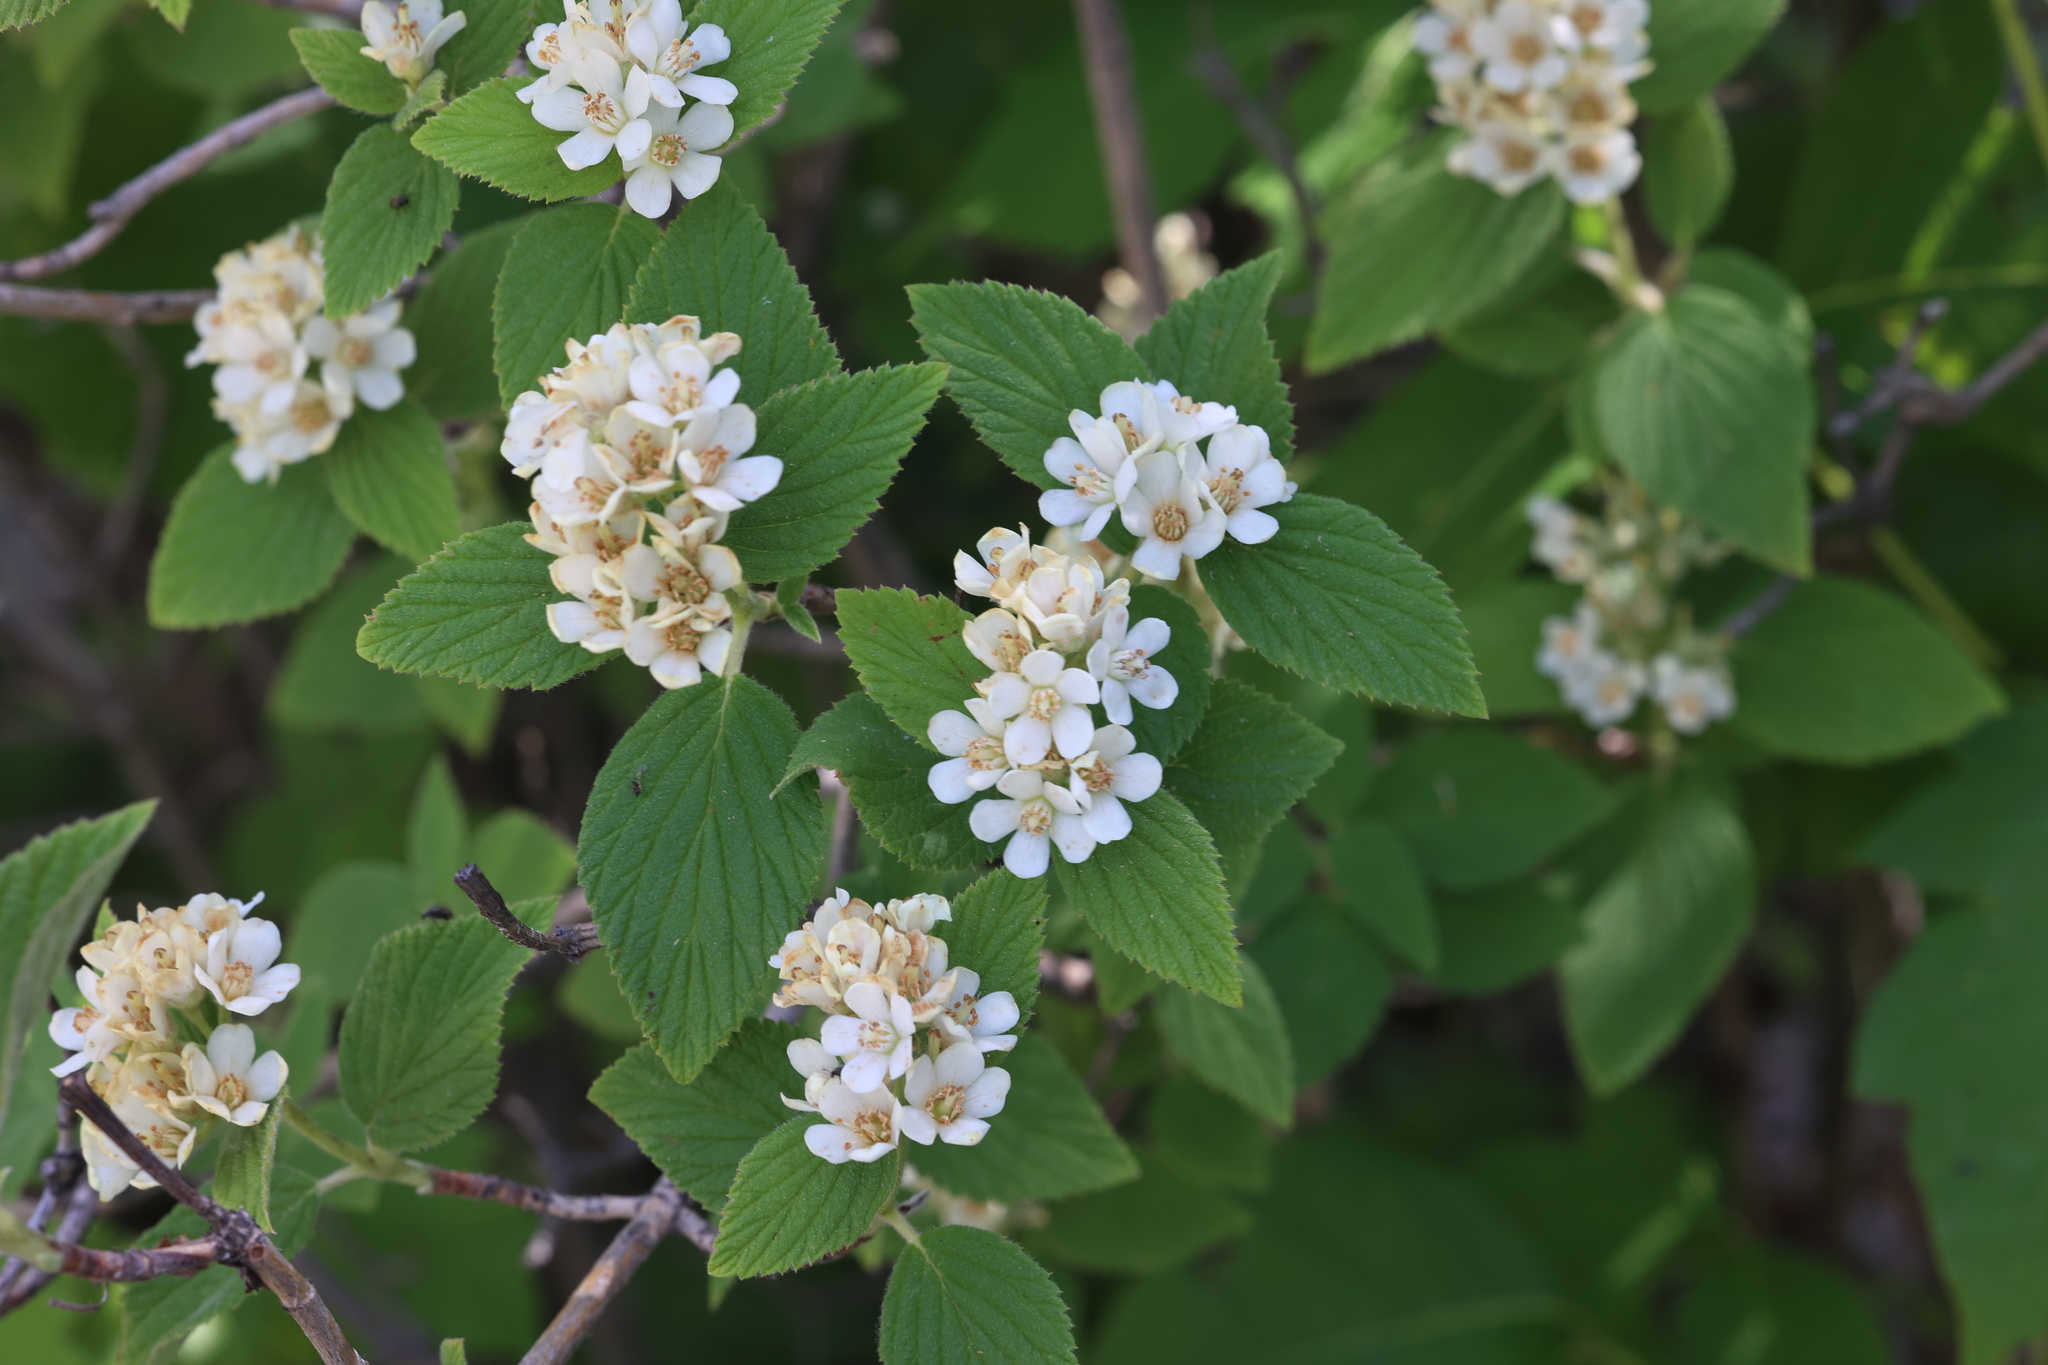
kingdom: Plantae
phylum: Tracheophyta
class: Magnoliopsida
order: Cornales
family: Hydrangeaceae
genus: Jamesia
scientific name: Jamesia americana
